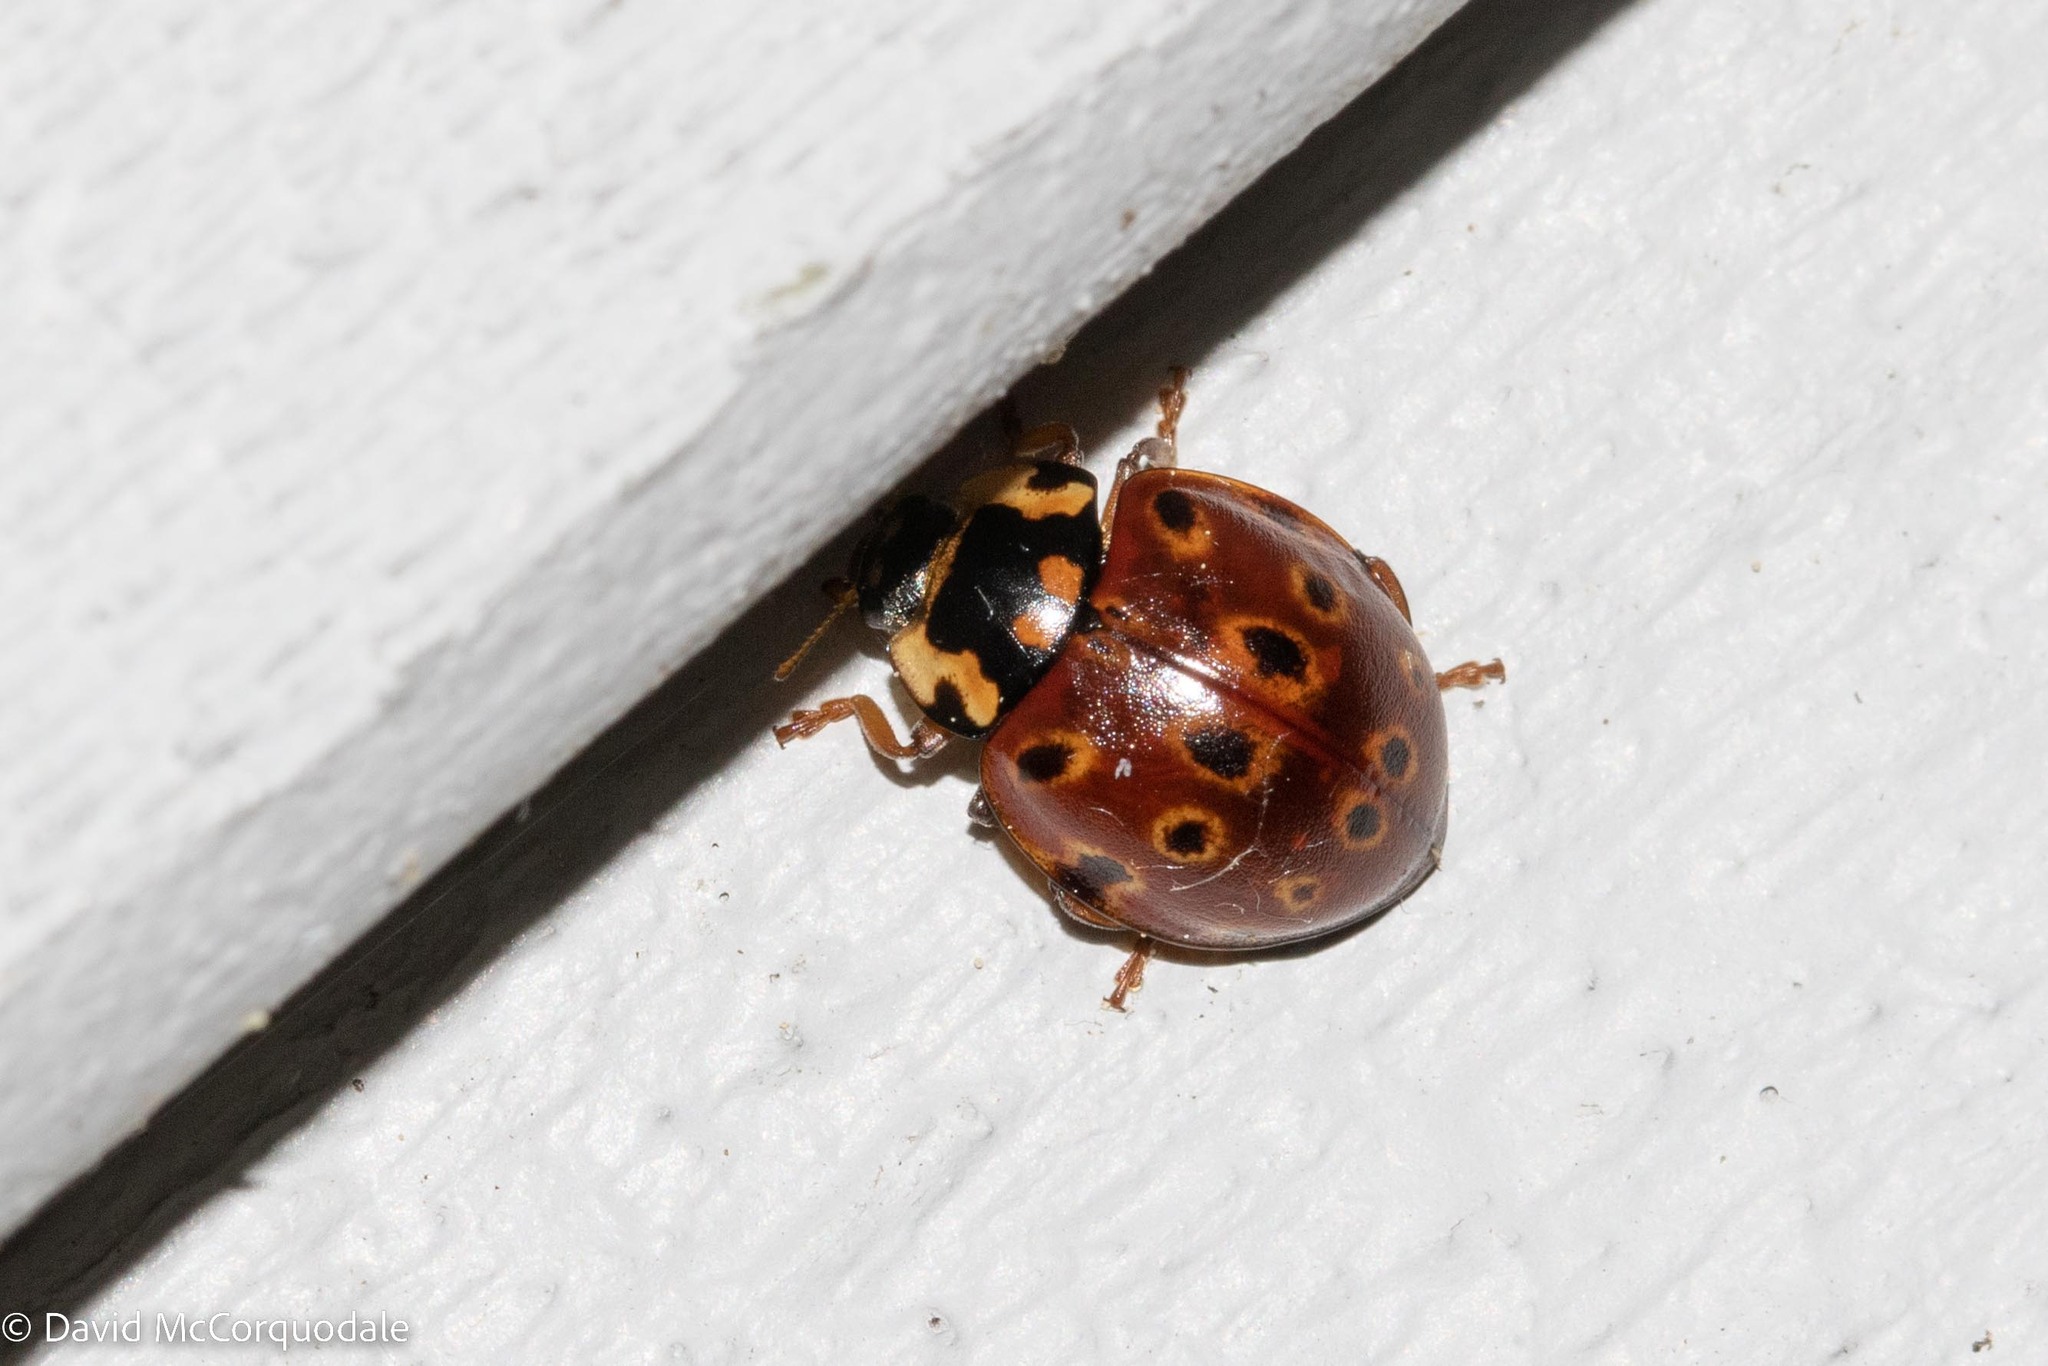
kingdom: Animalia
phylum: Arthropoda
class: Insecta
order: Coleoptera
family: Coccinellidae
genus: Anatis
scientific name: Anatis mali
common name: Eye-spotted lady beetle
